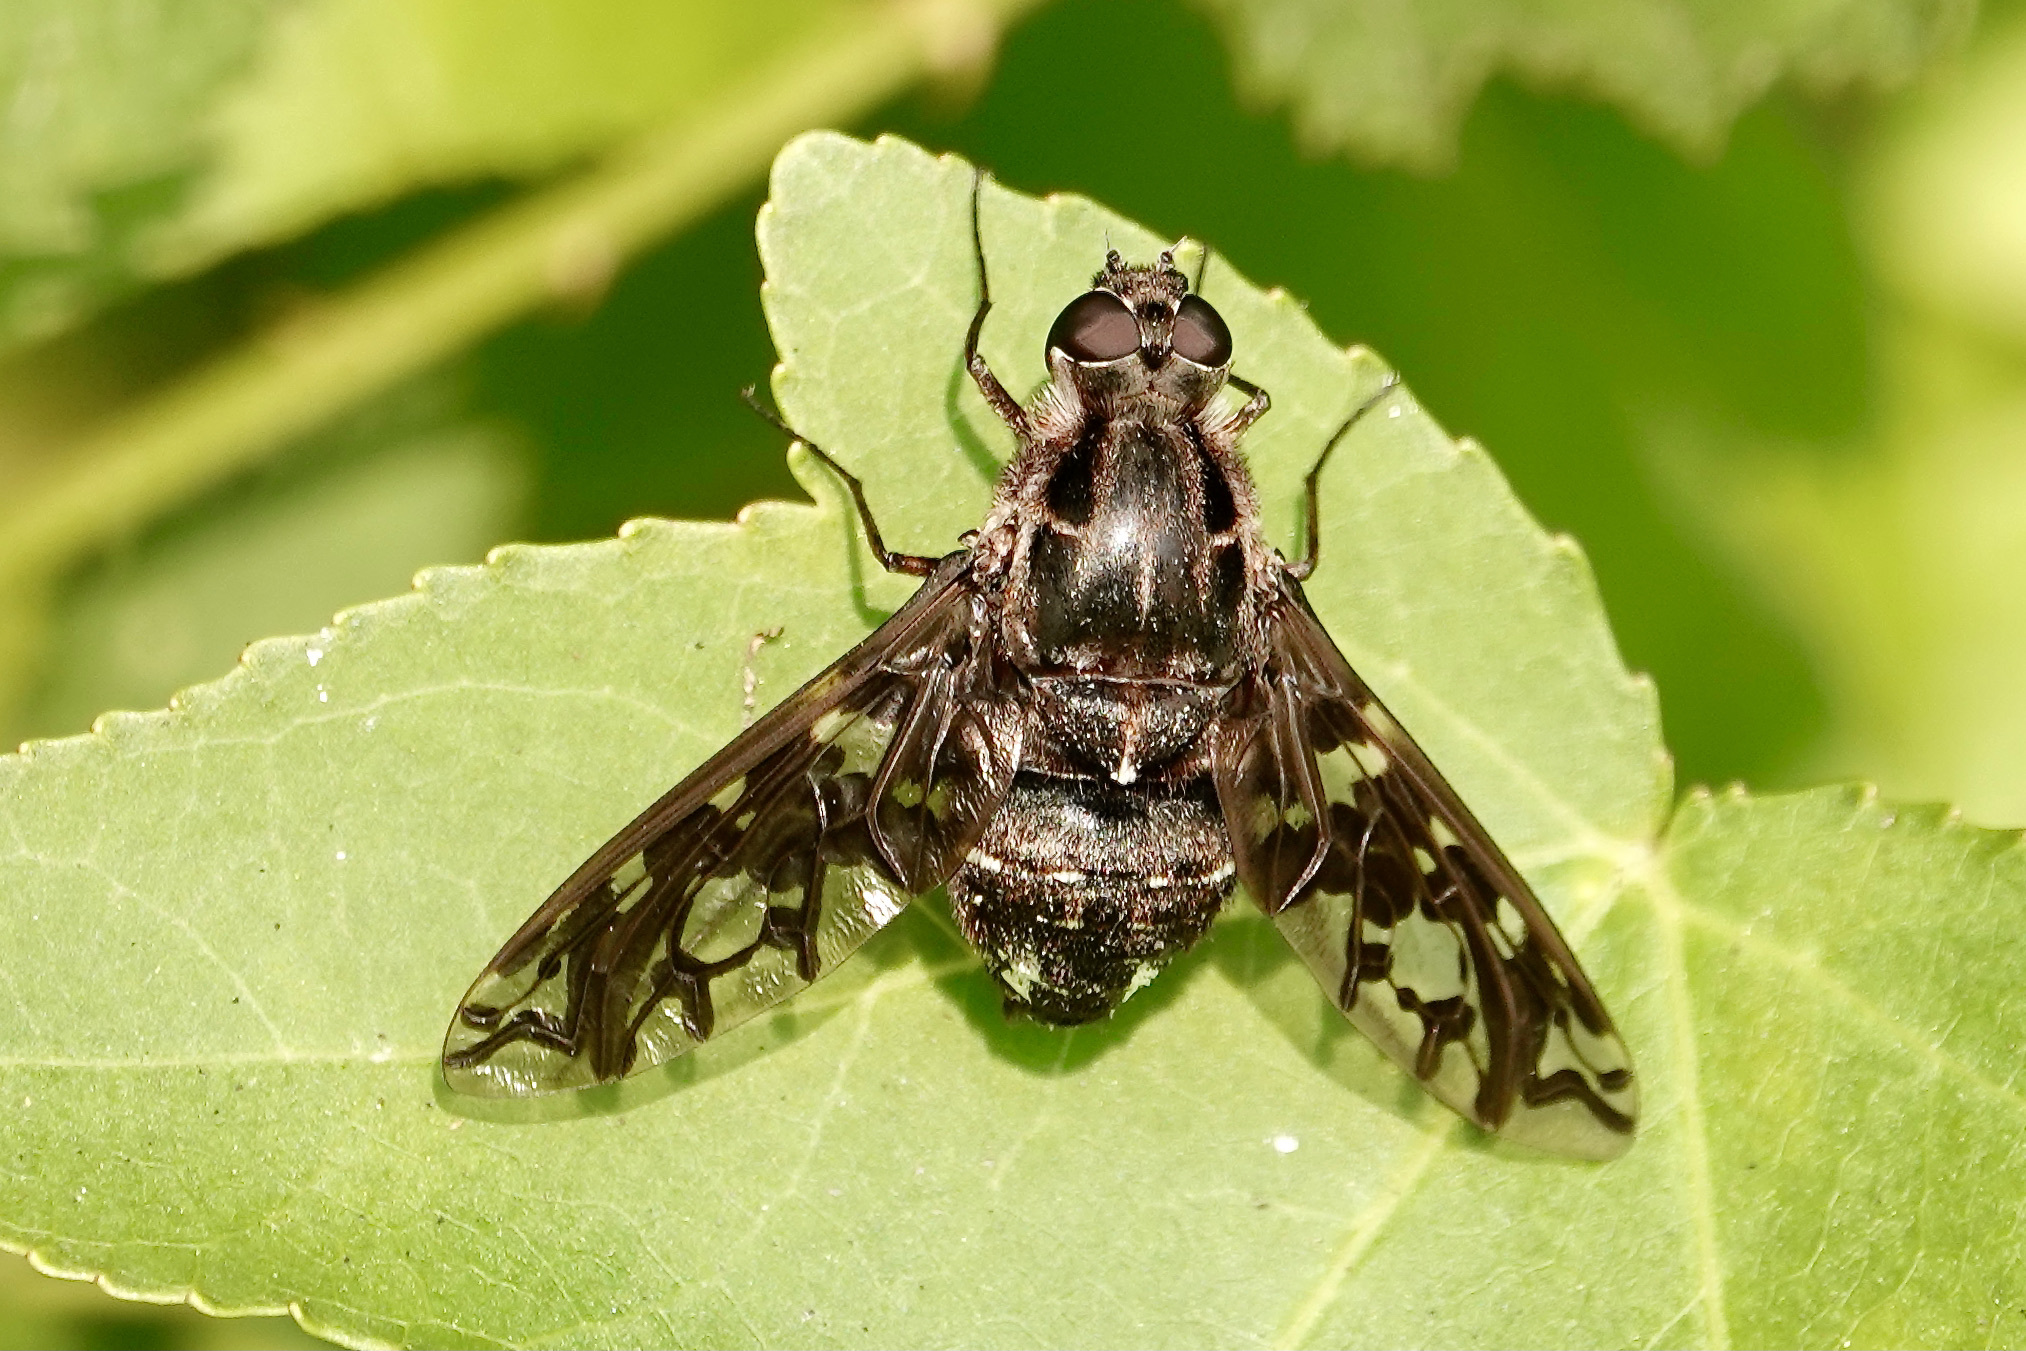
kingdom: Animalia
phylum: Arthropoda
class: Insecta
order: Diptera
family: Bombyliidae
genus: Xenox
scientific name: Xenox tigrinus
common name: Tiger bee fly
